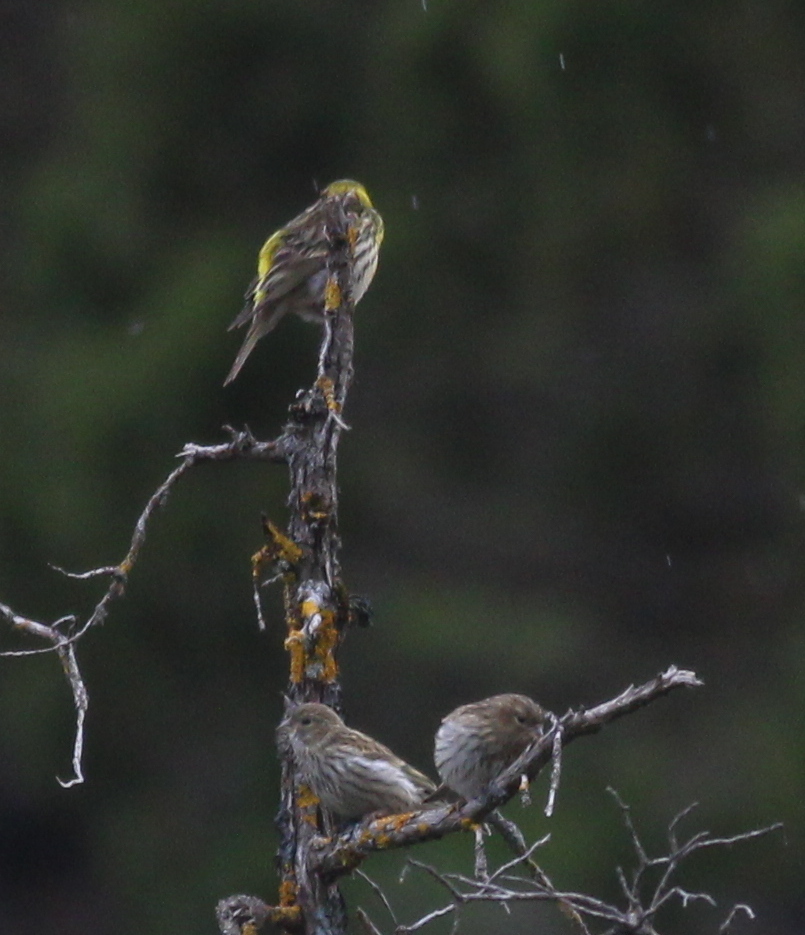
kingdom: Animalia
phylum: Chordata
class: Aves
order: Passeriformes
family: Fringillidae
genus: Serinus
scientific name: Serinus serinus
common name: European serin
